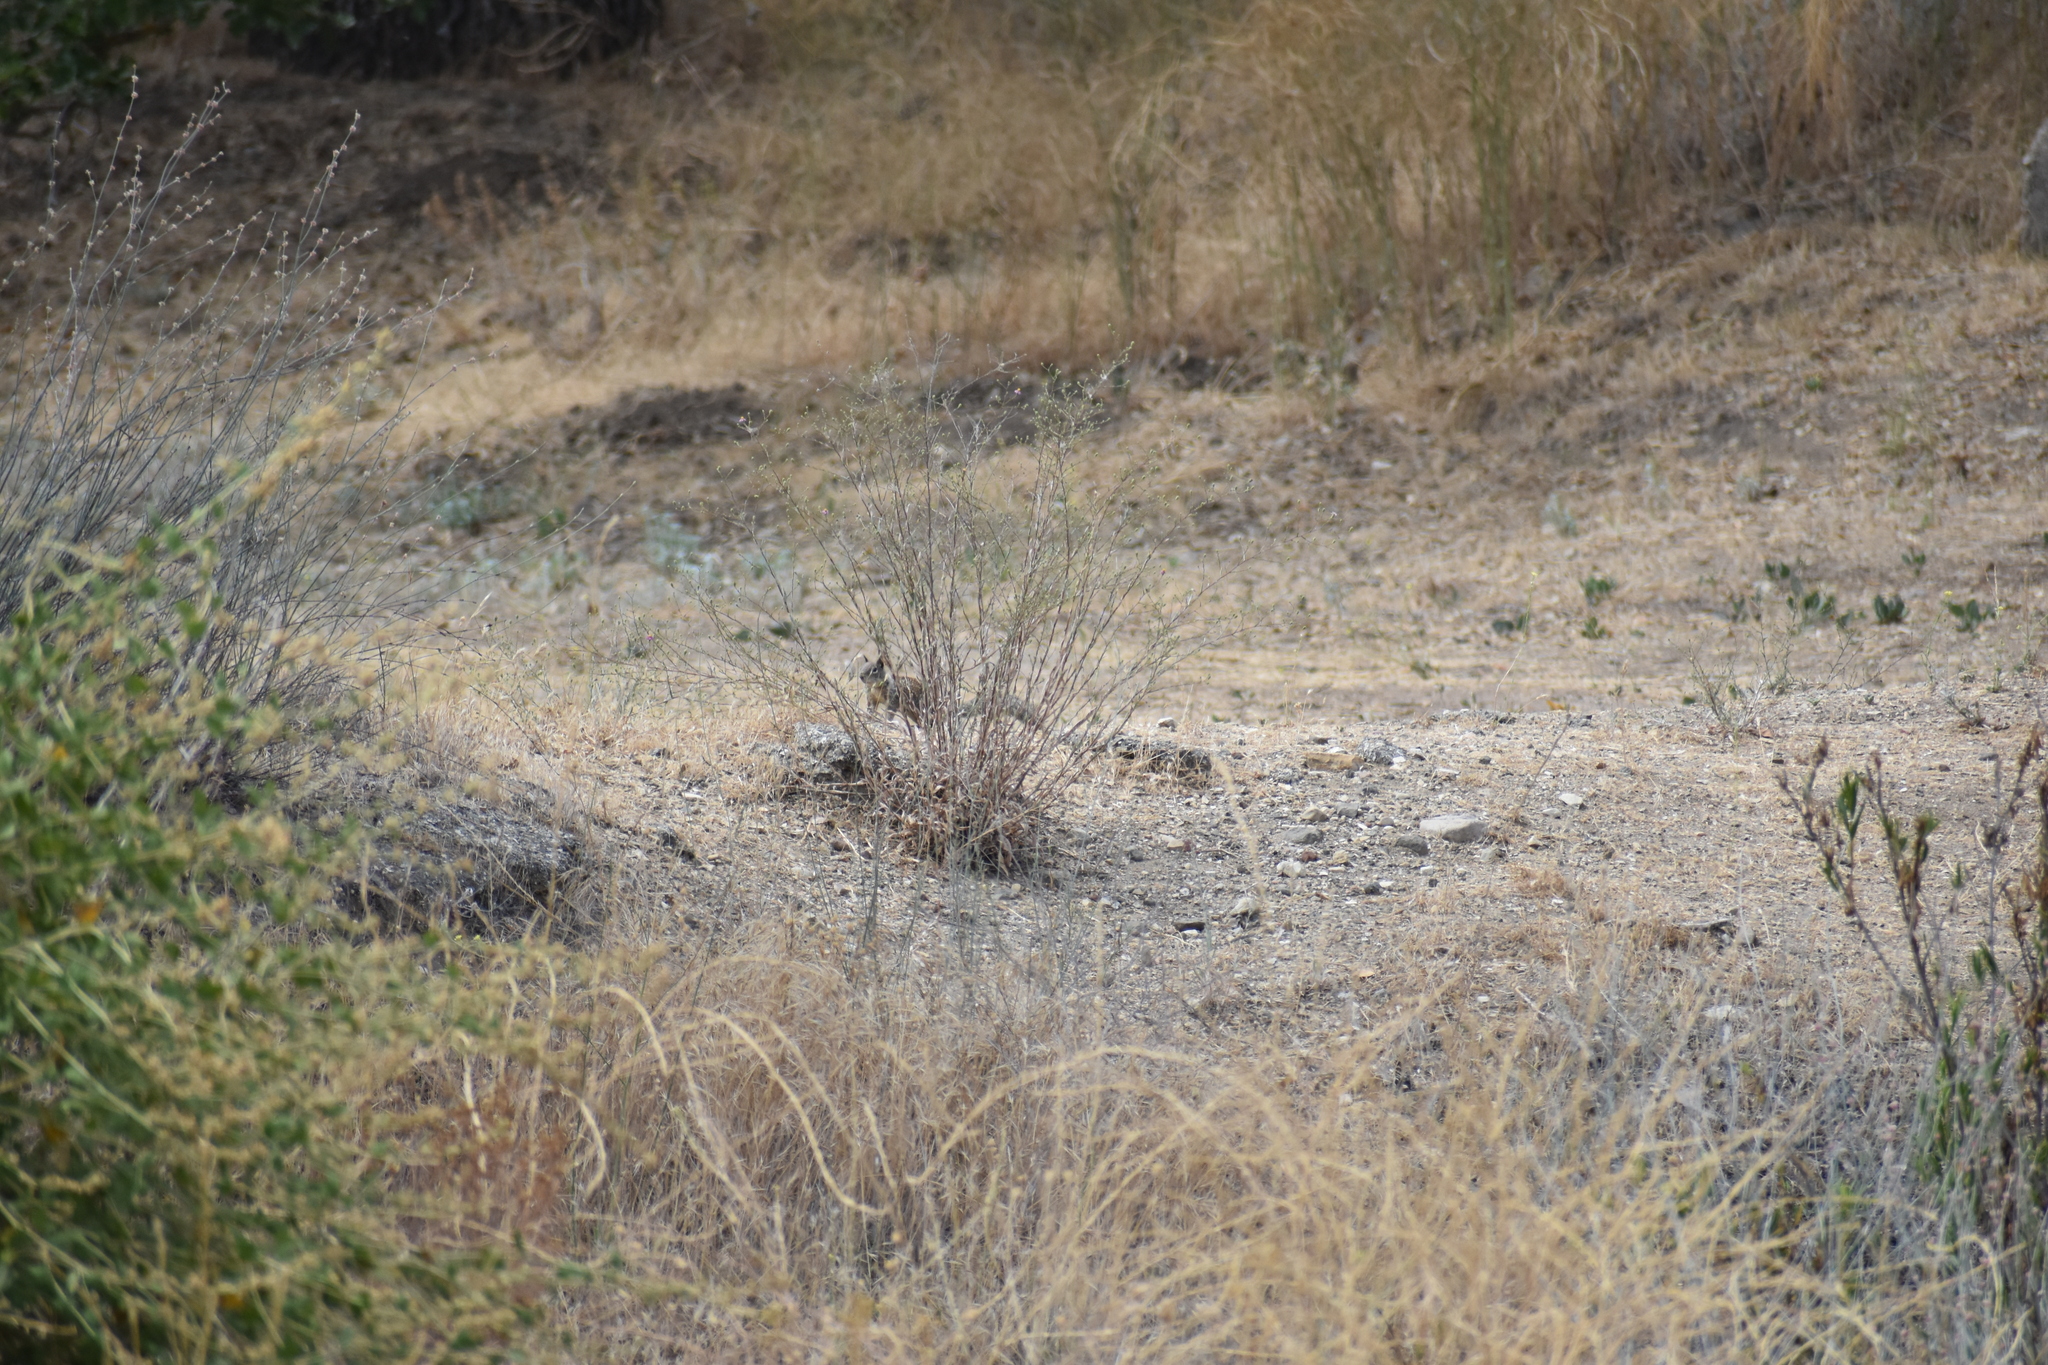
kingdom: Animalia
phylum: Chordata
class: Mammalia
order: Rodentia
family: Sciuridae
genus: Otospermophilus
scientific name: Otospermophilus beecheyi
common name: California ground squirrel
